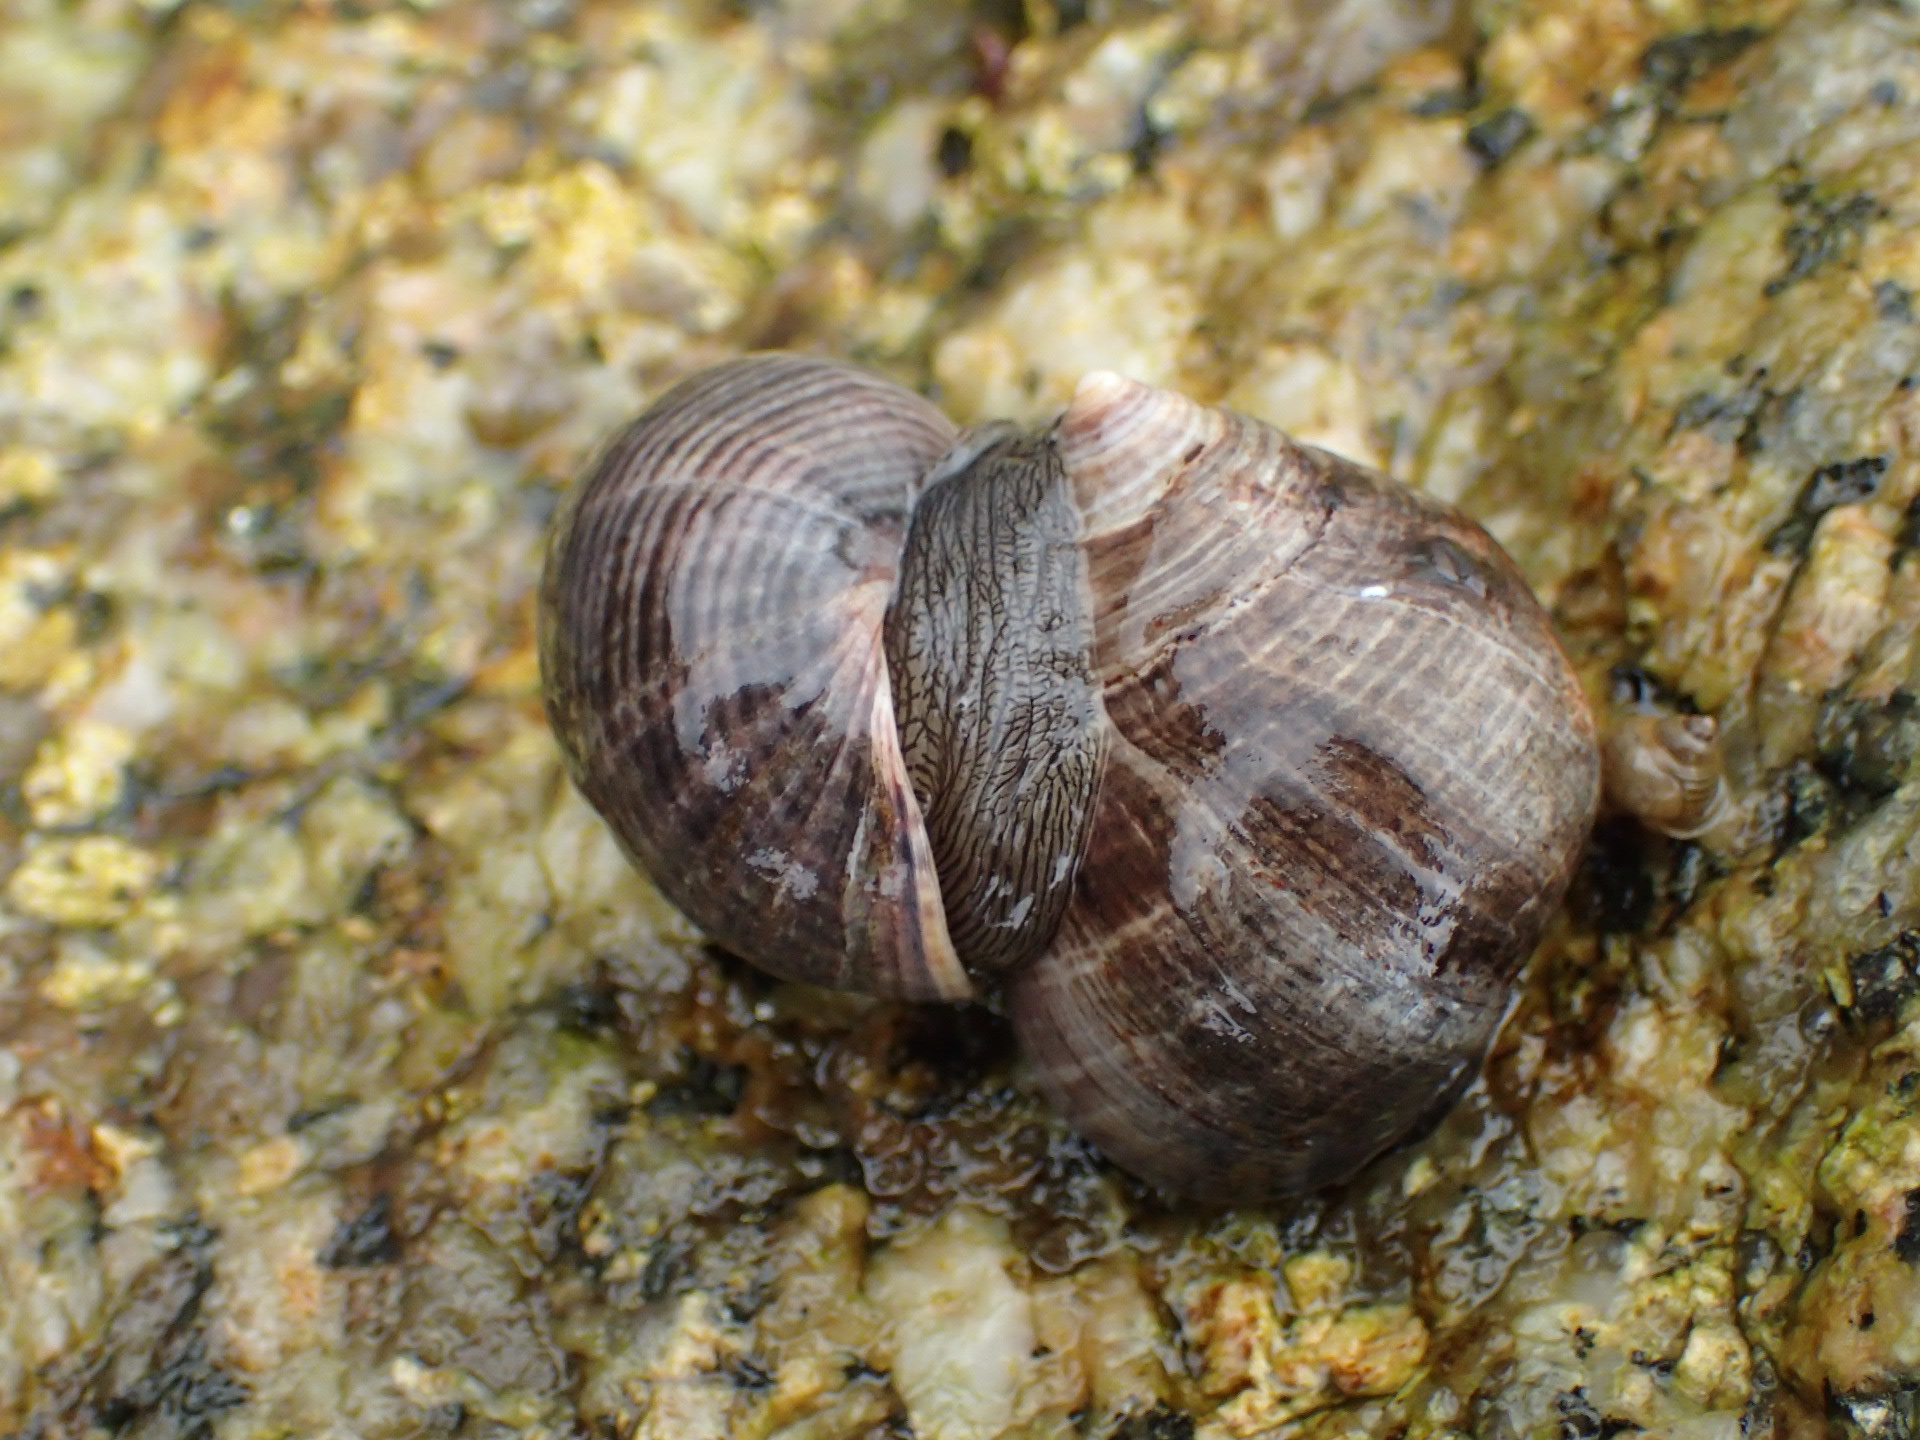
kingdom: Animalia
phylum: Mollusca
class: Gastropoda
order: Littorinimorpha
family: Littorinidae
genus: Littorina
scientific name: Littorina littorea
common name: Common periwinkle
